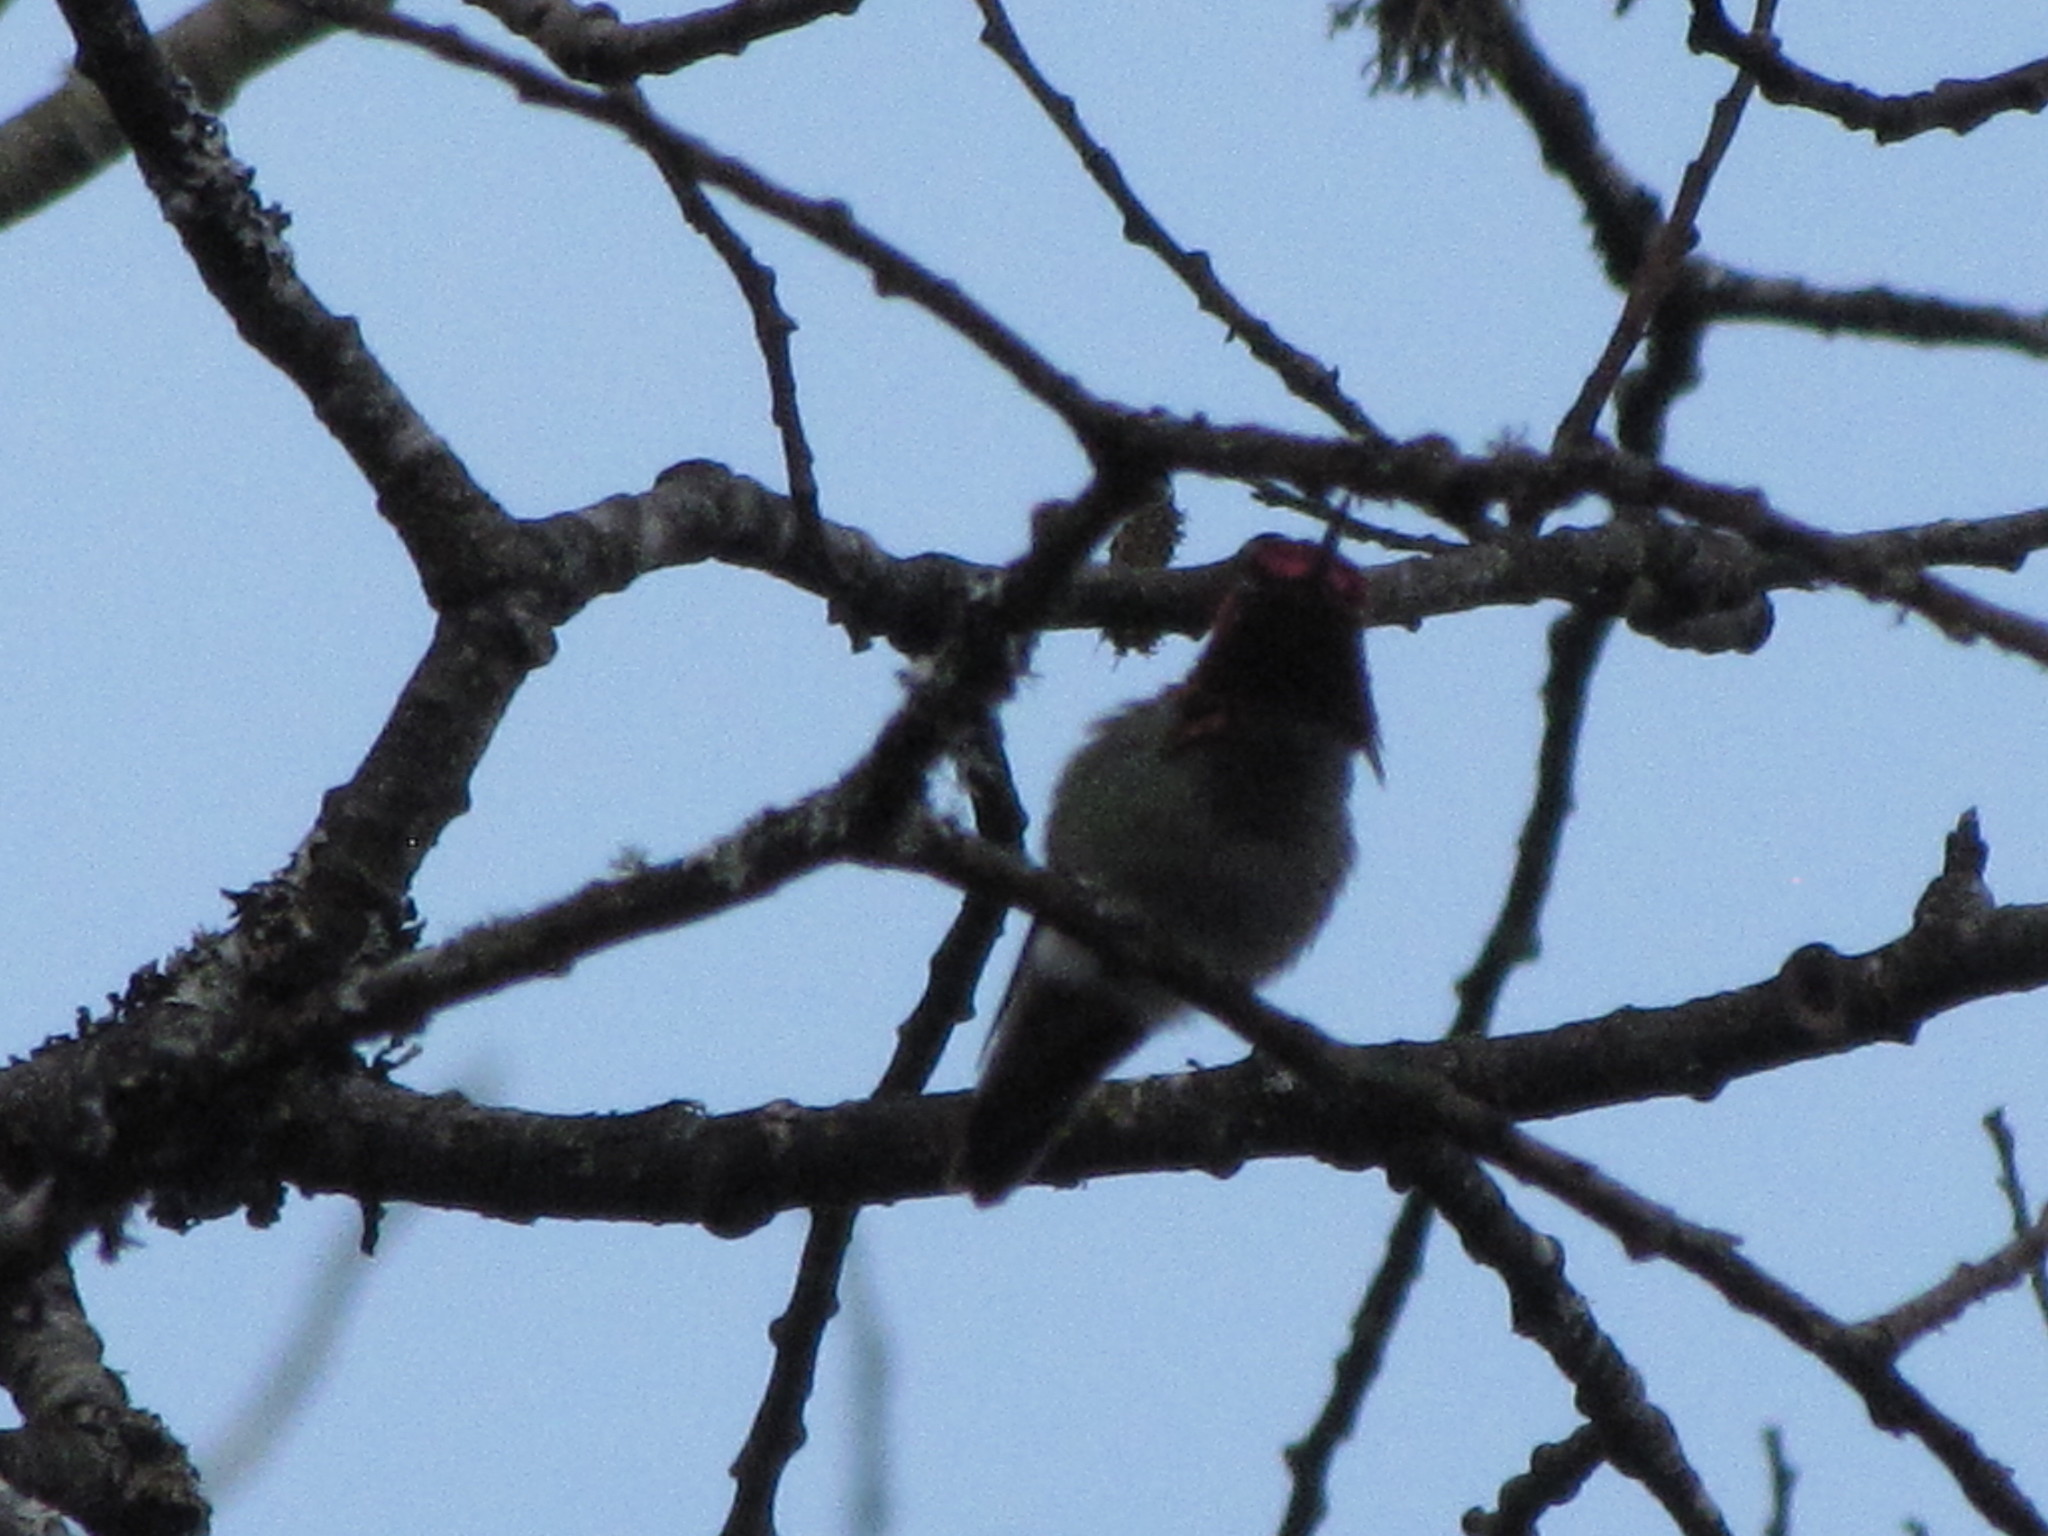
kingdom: Animalia
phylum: Chordata
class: Aves
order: Apodiformes
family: Trochilidae
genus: Calypte
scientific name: Calypte anna
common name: Anna's hummingbird
